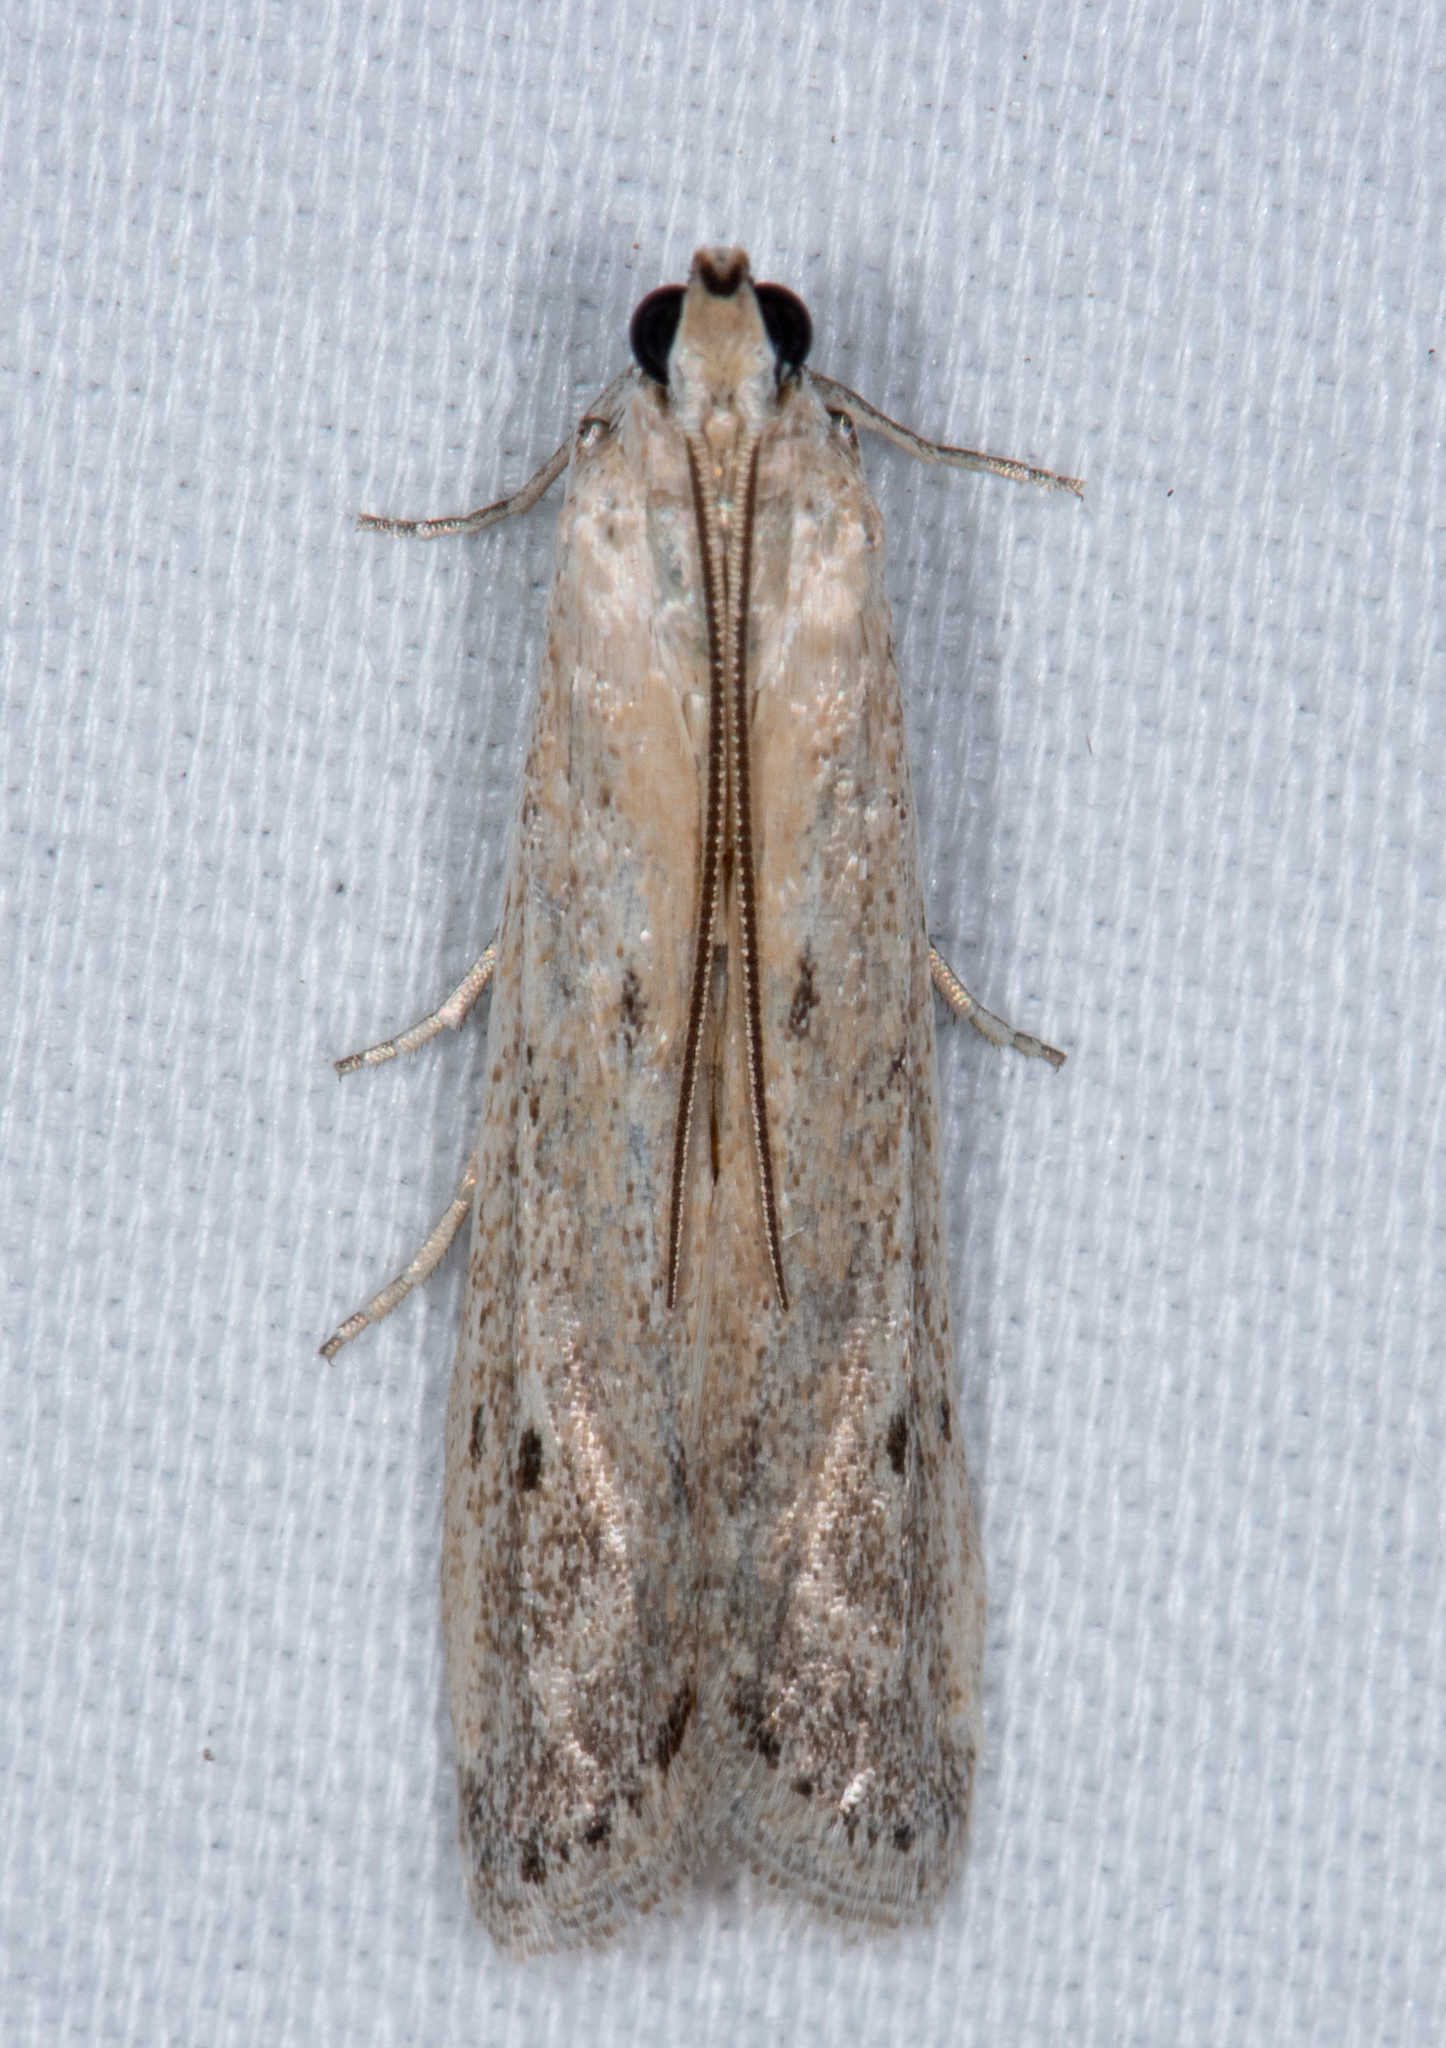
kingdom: Animalia
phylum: Arthropoda
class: Insecta
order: Lepidoptera
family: Pyralidae
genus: Homoeosoma
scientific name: Homoeosoma electella
